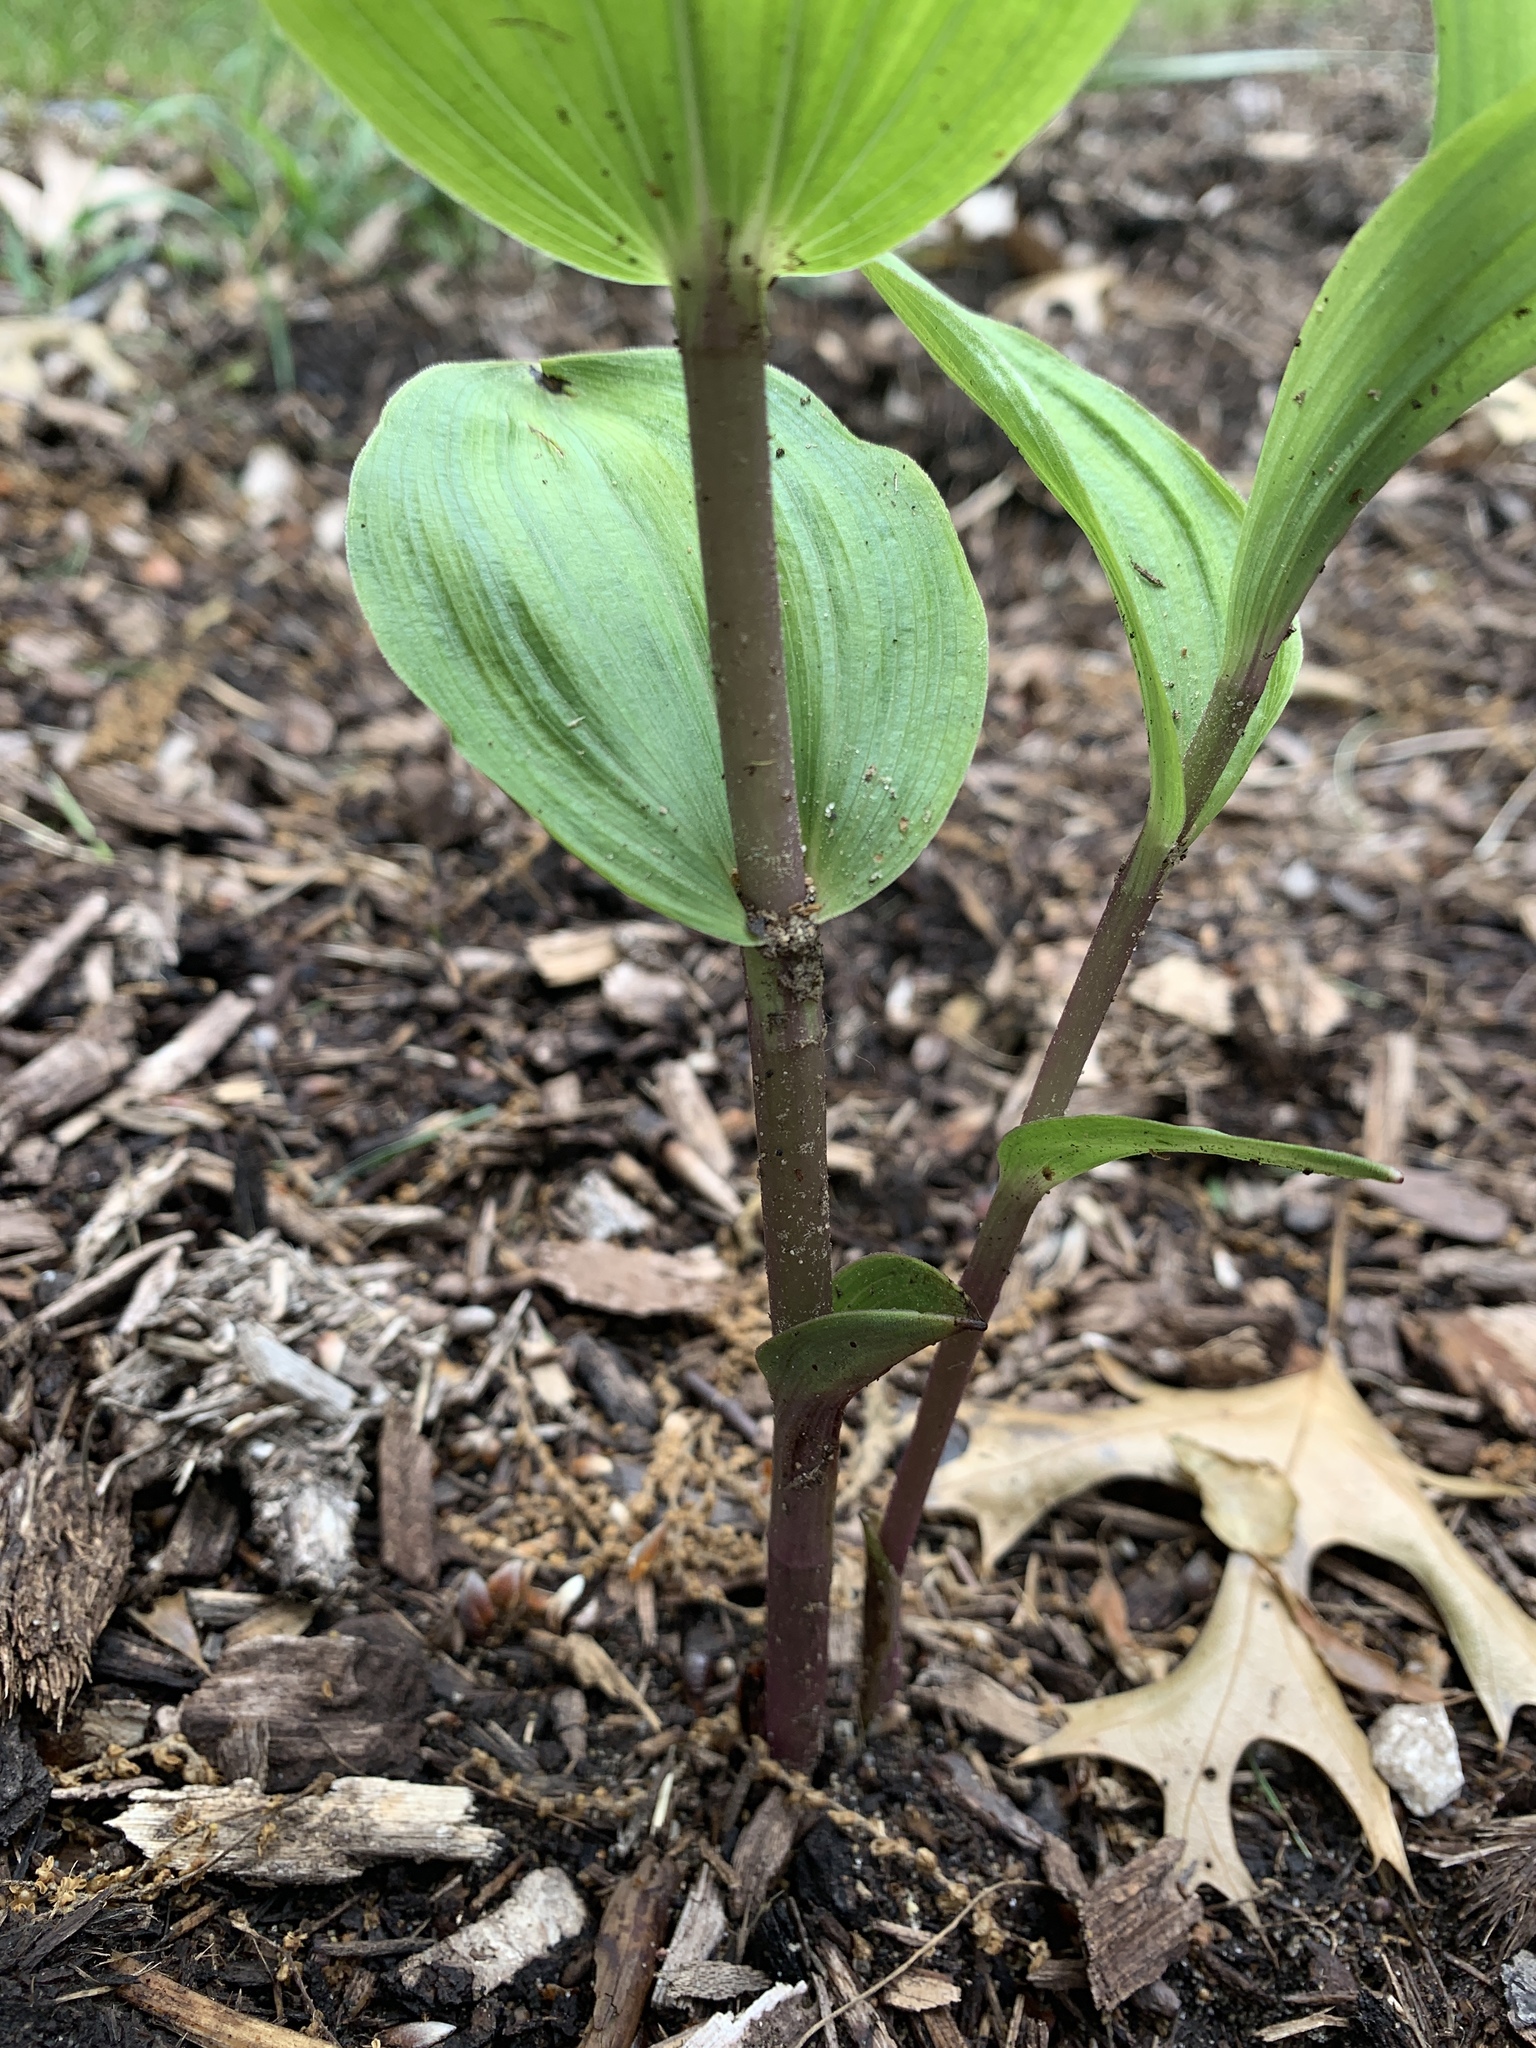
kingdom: Plantae
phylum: Tracheophyta
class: Liliopsida
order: Asparagales
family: Orchidaceae
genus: Epipactis
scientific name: Epipactis helleborine
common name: Broad-leaved helleborine
